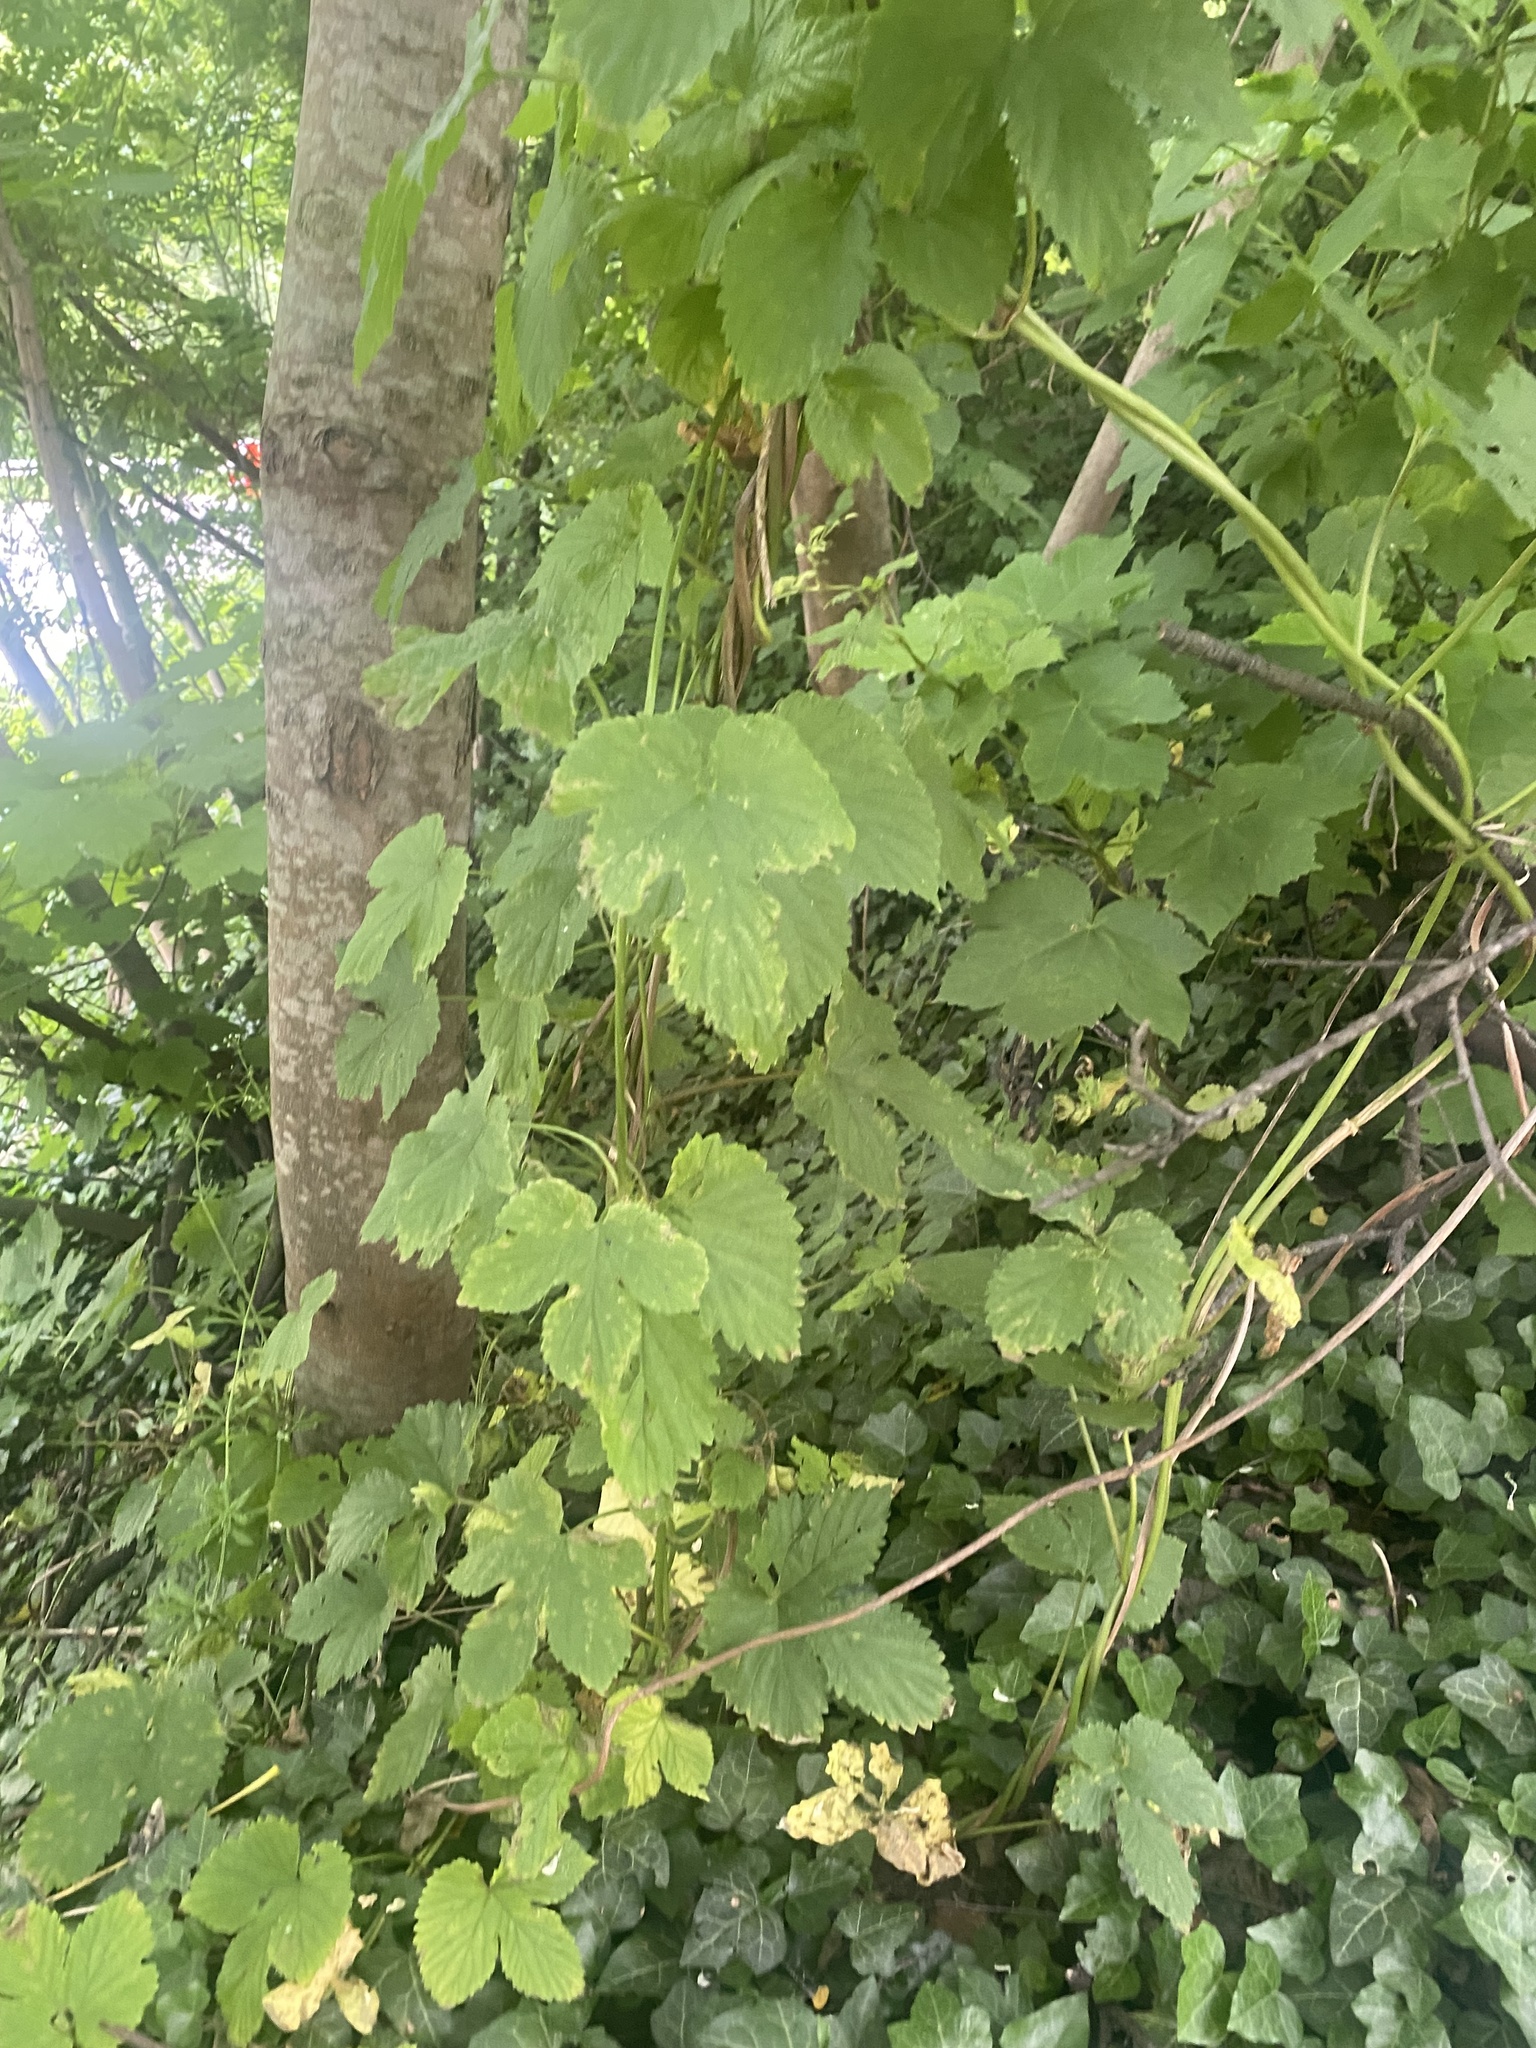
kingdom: Plantae
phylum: Tracheophyta
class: Magnoliopsida
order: Rosales
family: Cannabaceae
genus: Humulus
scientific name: Humulus lupulus
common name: Hop
